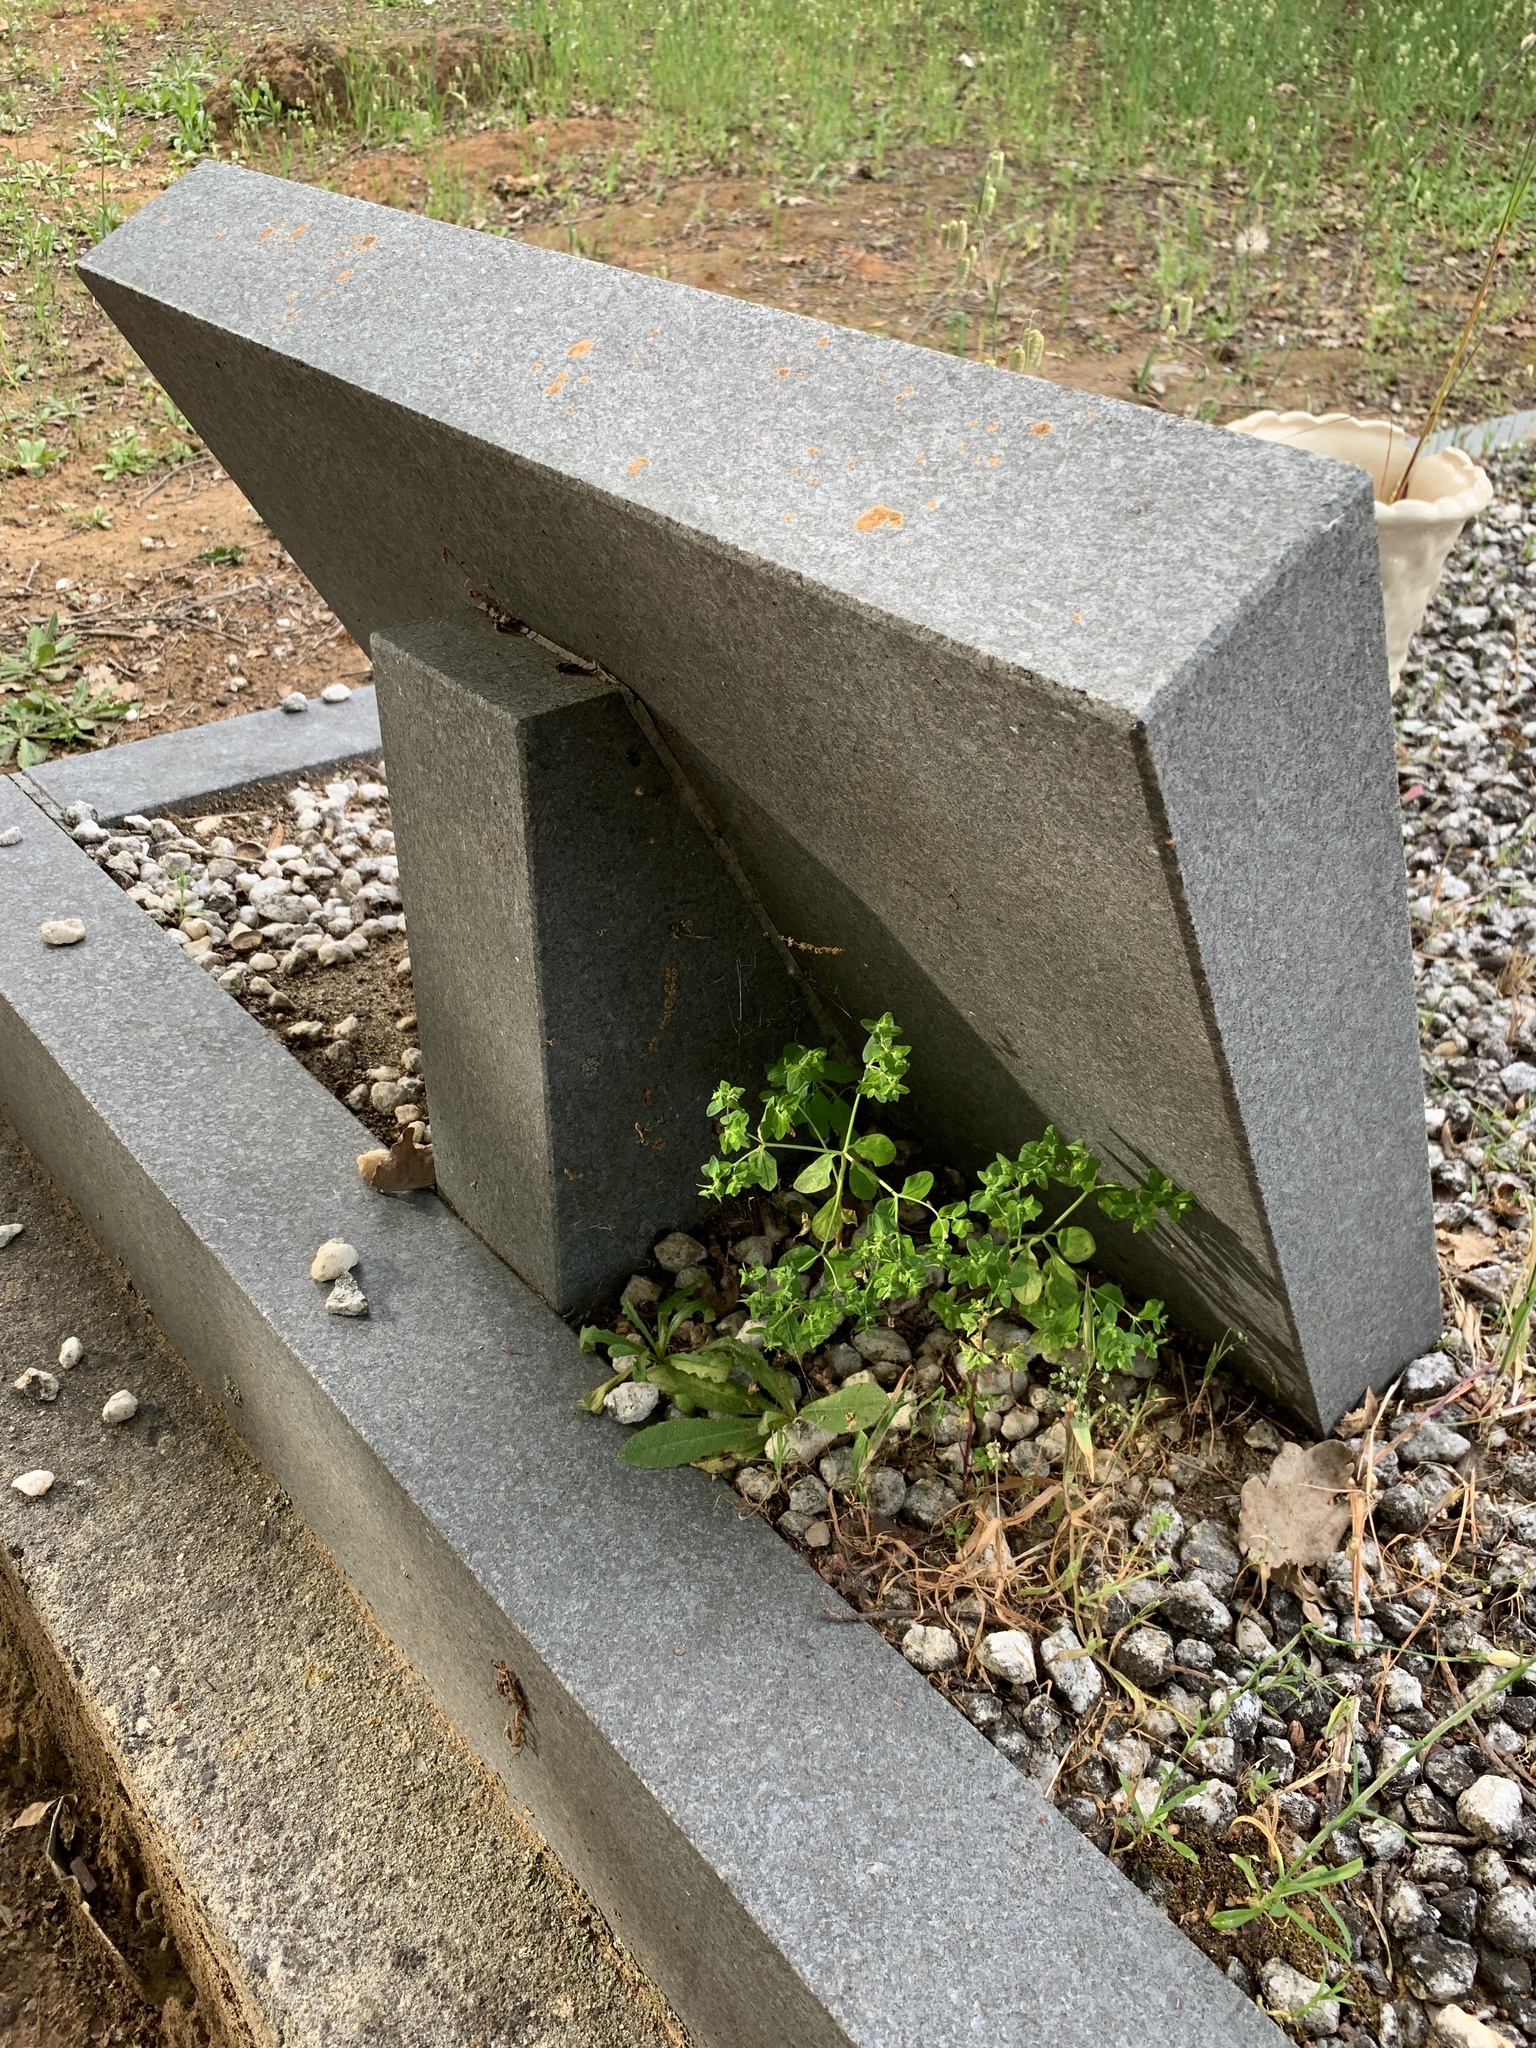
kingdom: Plantae
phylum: Tracheophyta
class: Magnoliopsida
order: Malpighiales
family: Euphorbiaceae
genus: Euphorbia
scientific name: Euphorbia peplus
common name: Petty spurge
